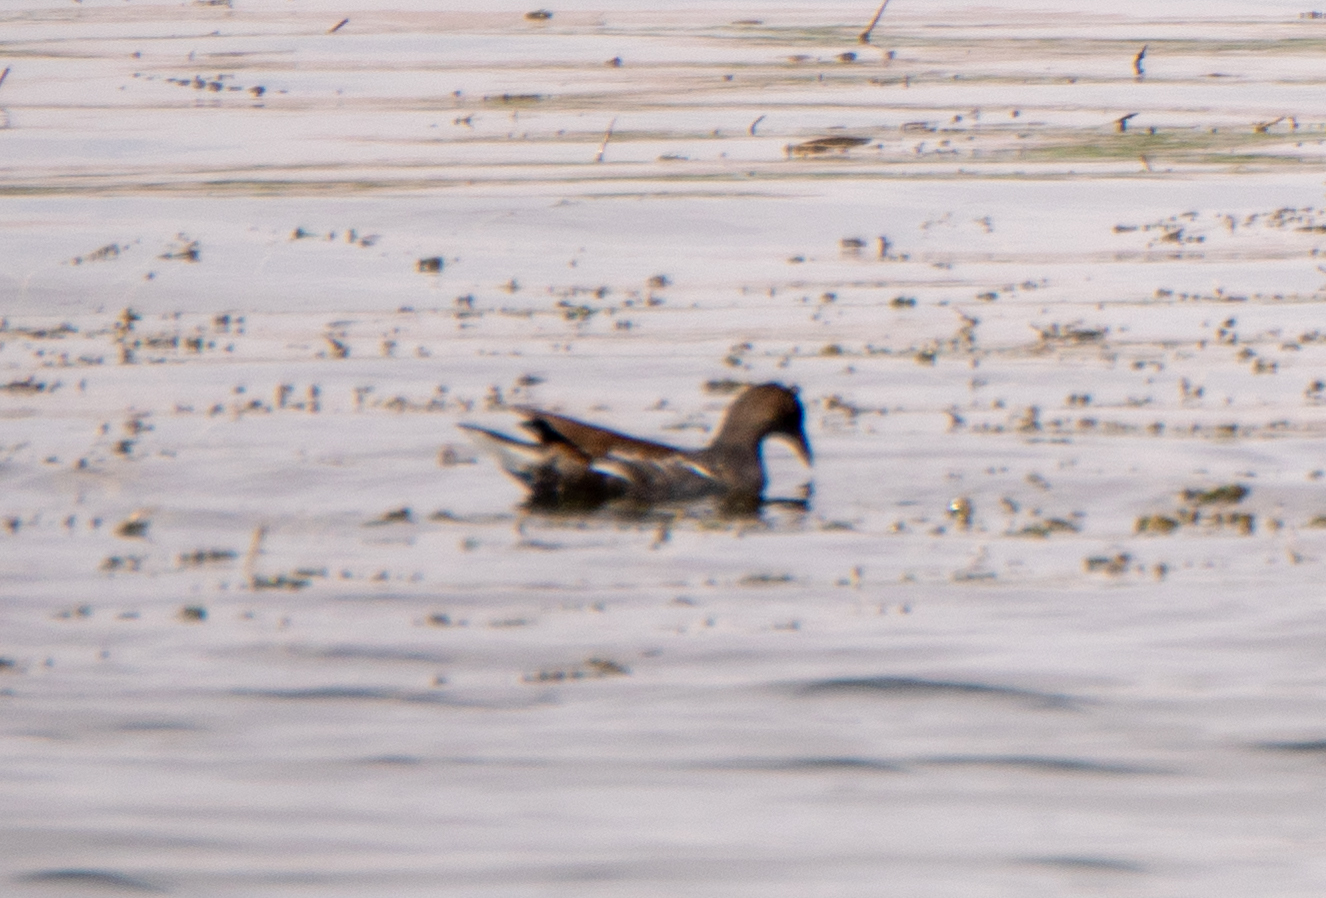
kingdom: Animalia
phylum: Chordata
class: Aves
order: Gruiformes
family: Rallidae
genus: Gallinula
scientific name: Gallinula chloropus
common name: Common moorhen
